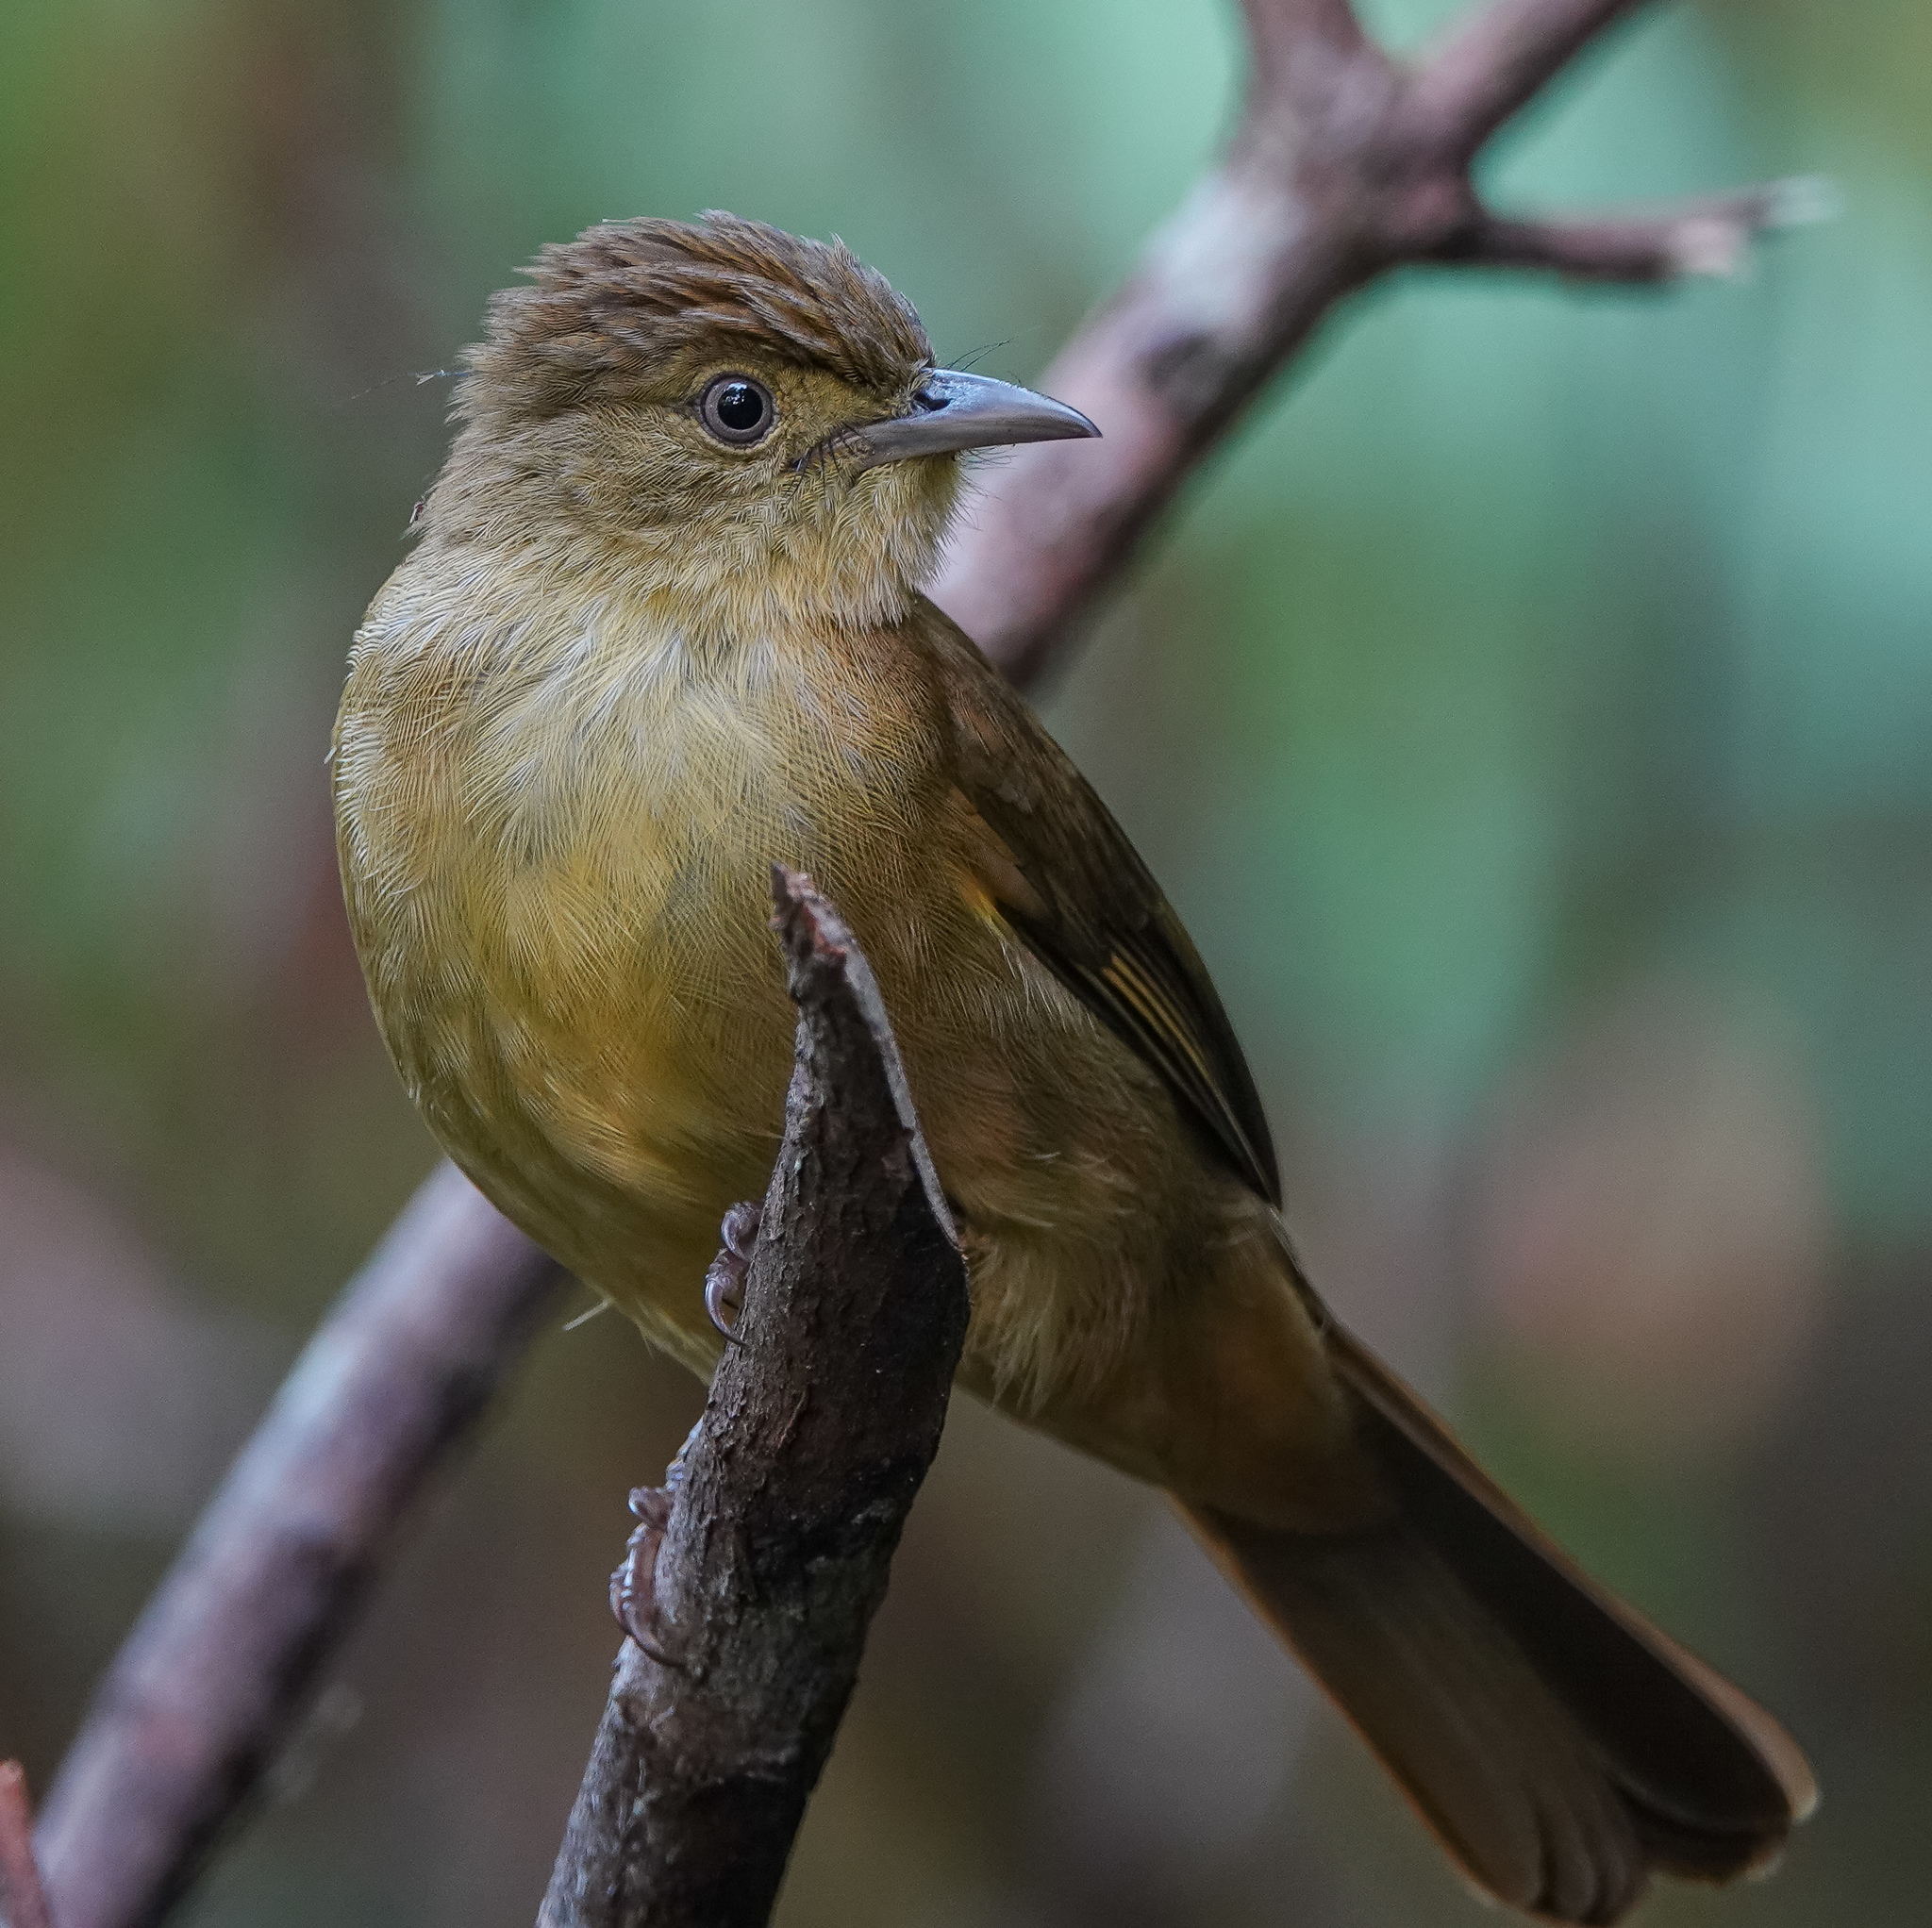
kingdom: Animalia
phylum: Chordata
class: Aves
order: Passeriformes
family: Pycnonotidae
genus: Iole
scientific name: Iole virescens
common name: Olive bulbul
